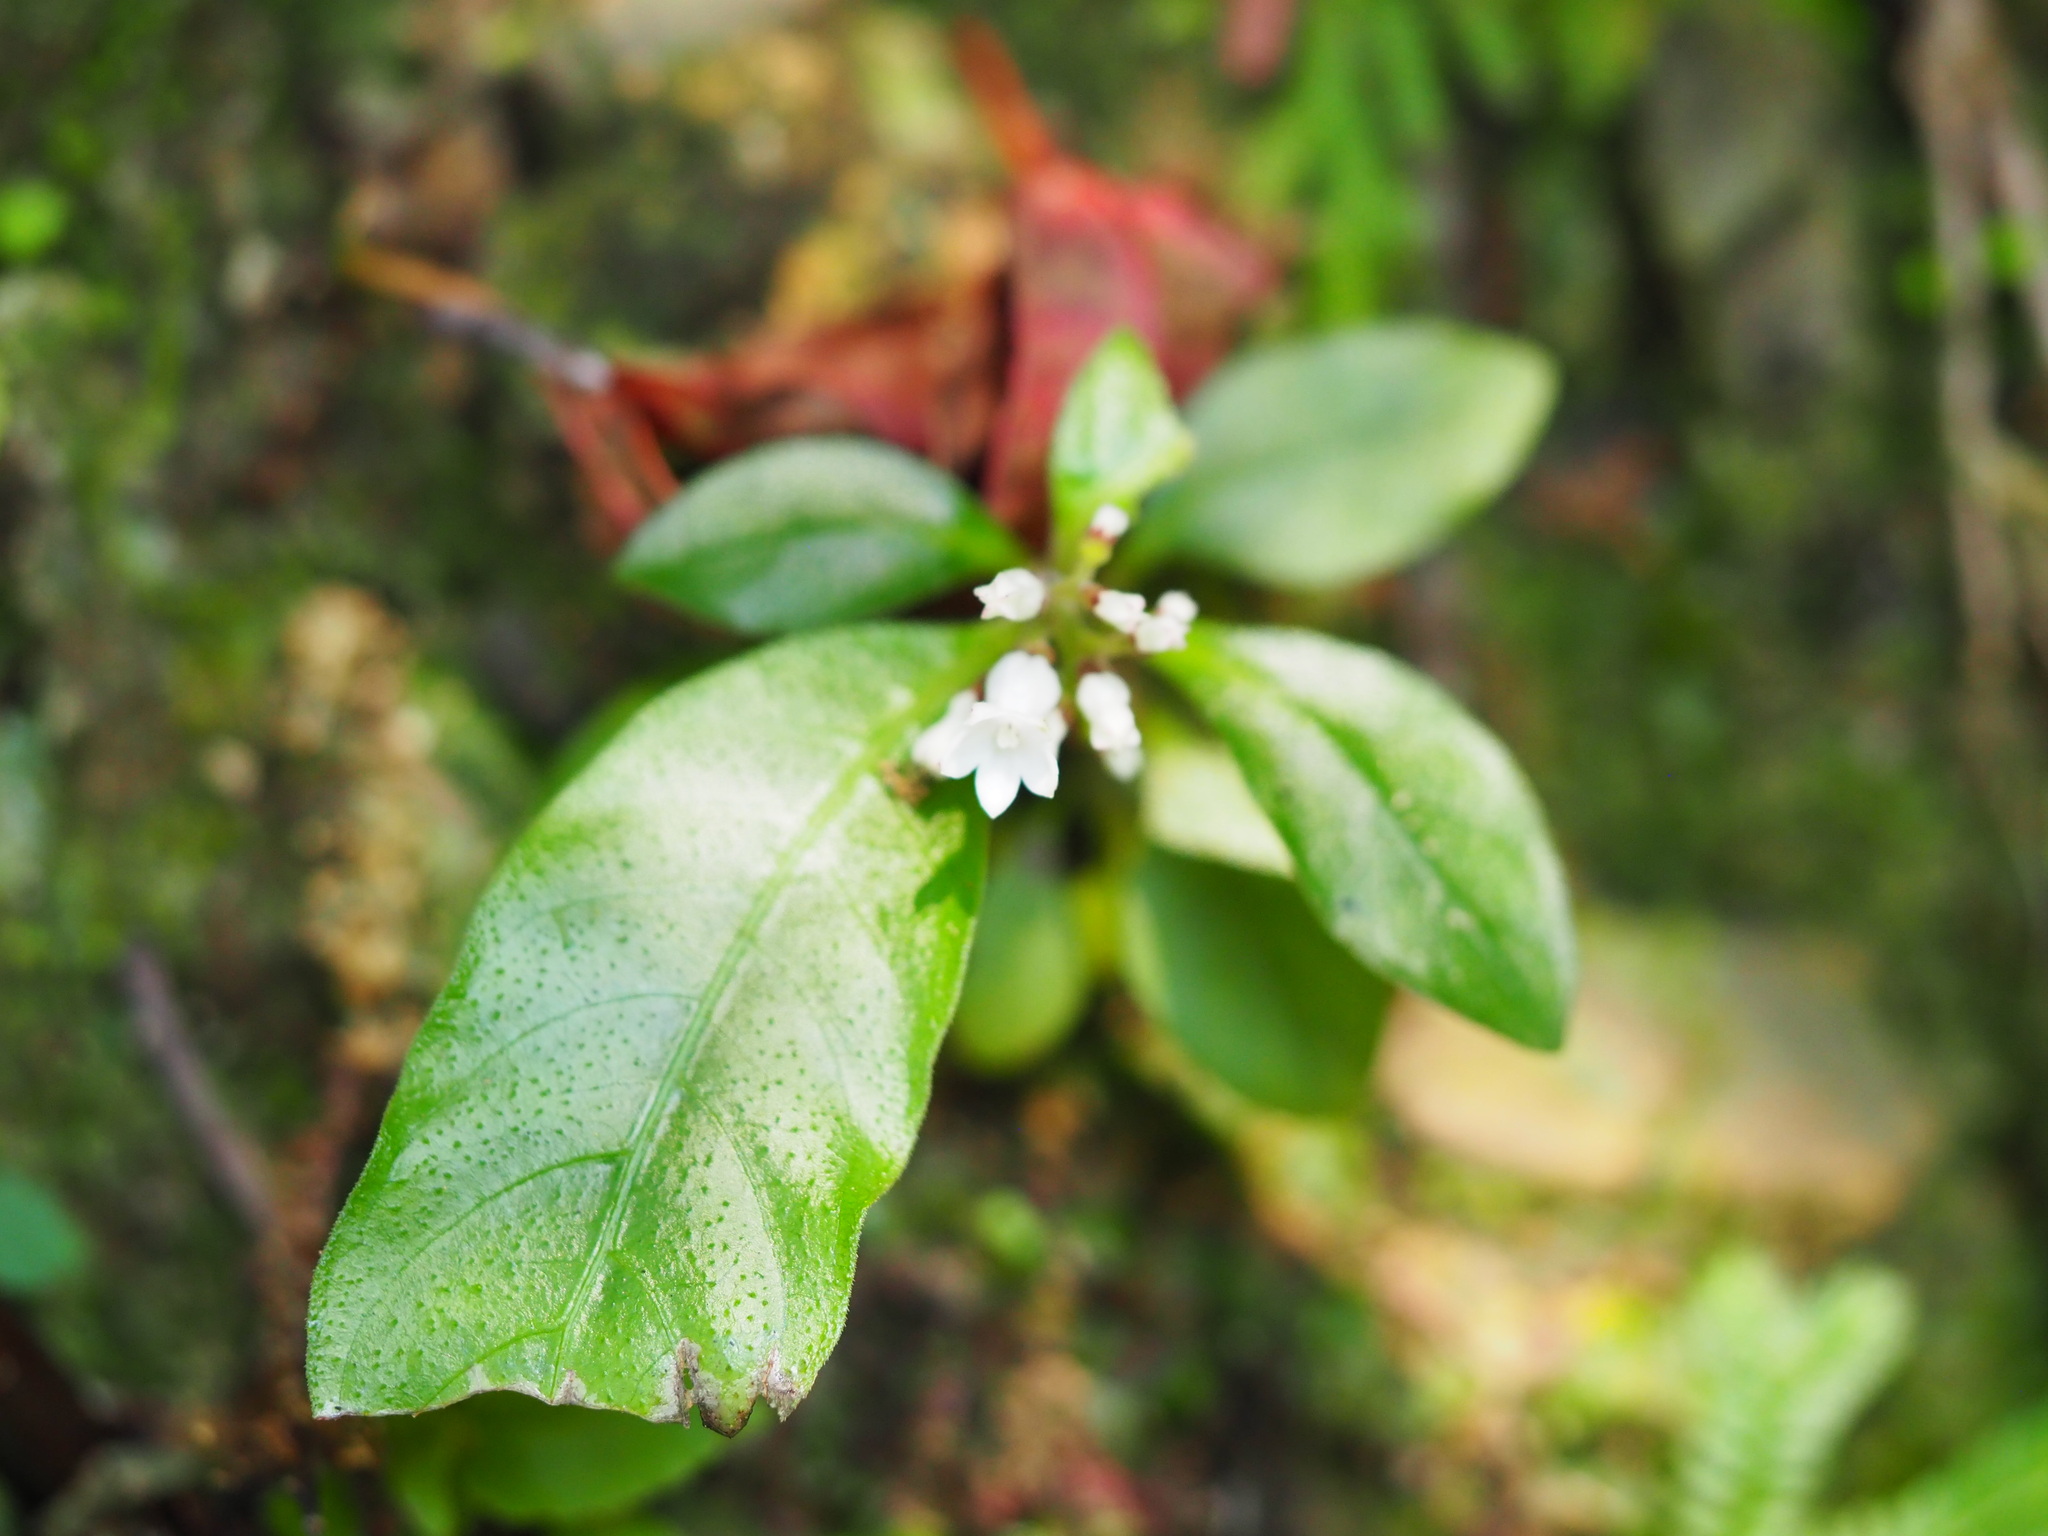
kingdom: Plantae
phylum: Tracheophyta
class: Magnoliopsida
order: Gentianales
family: Rubiaceae
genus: Ophiorrhiza
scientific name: Ophiorrhiza pumila
